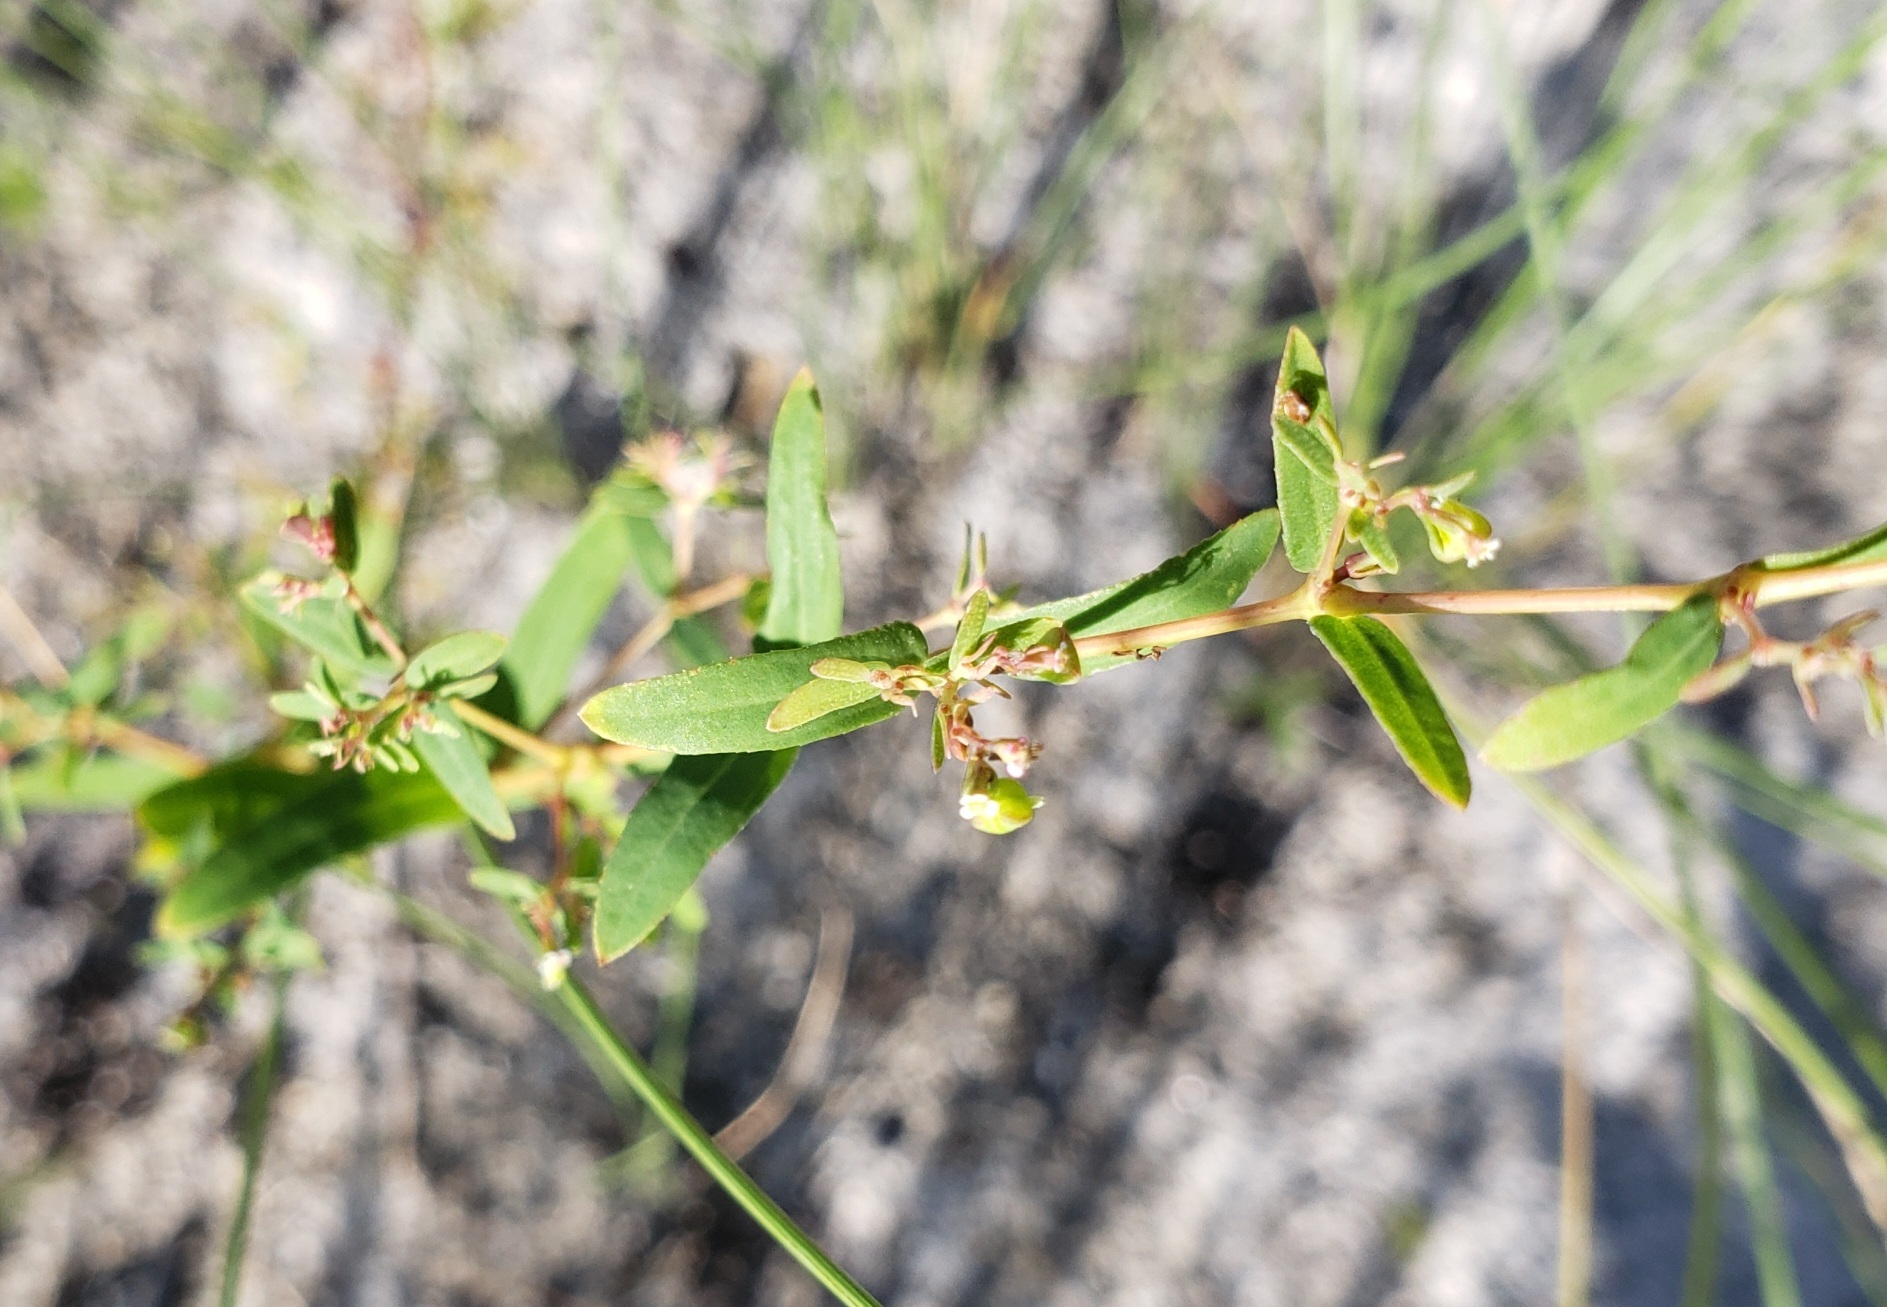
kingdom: Plantae
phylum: Tracheophyta
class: Magnoliopsida
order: Malpighiales
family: Euphorbiaceae
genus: Euphorbia
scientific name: Euphorbia hyssopifolia
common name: Hyssopleaf sandmat
